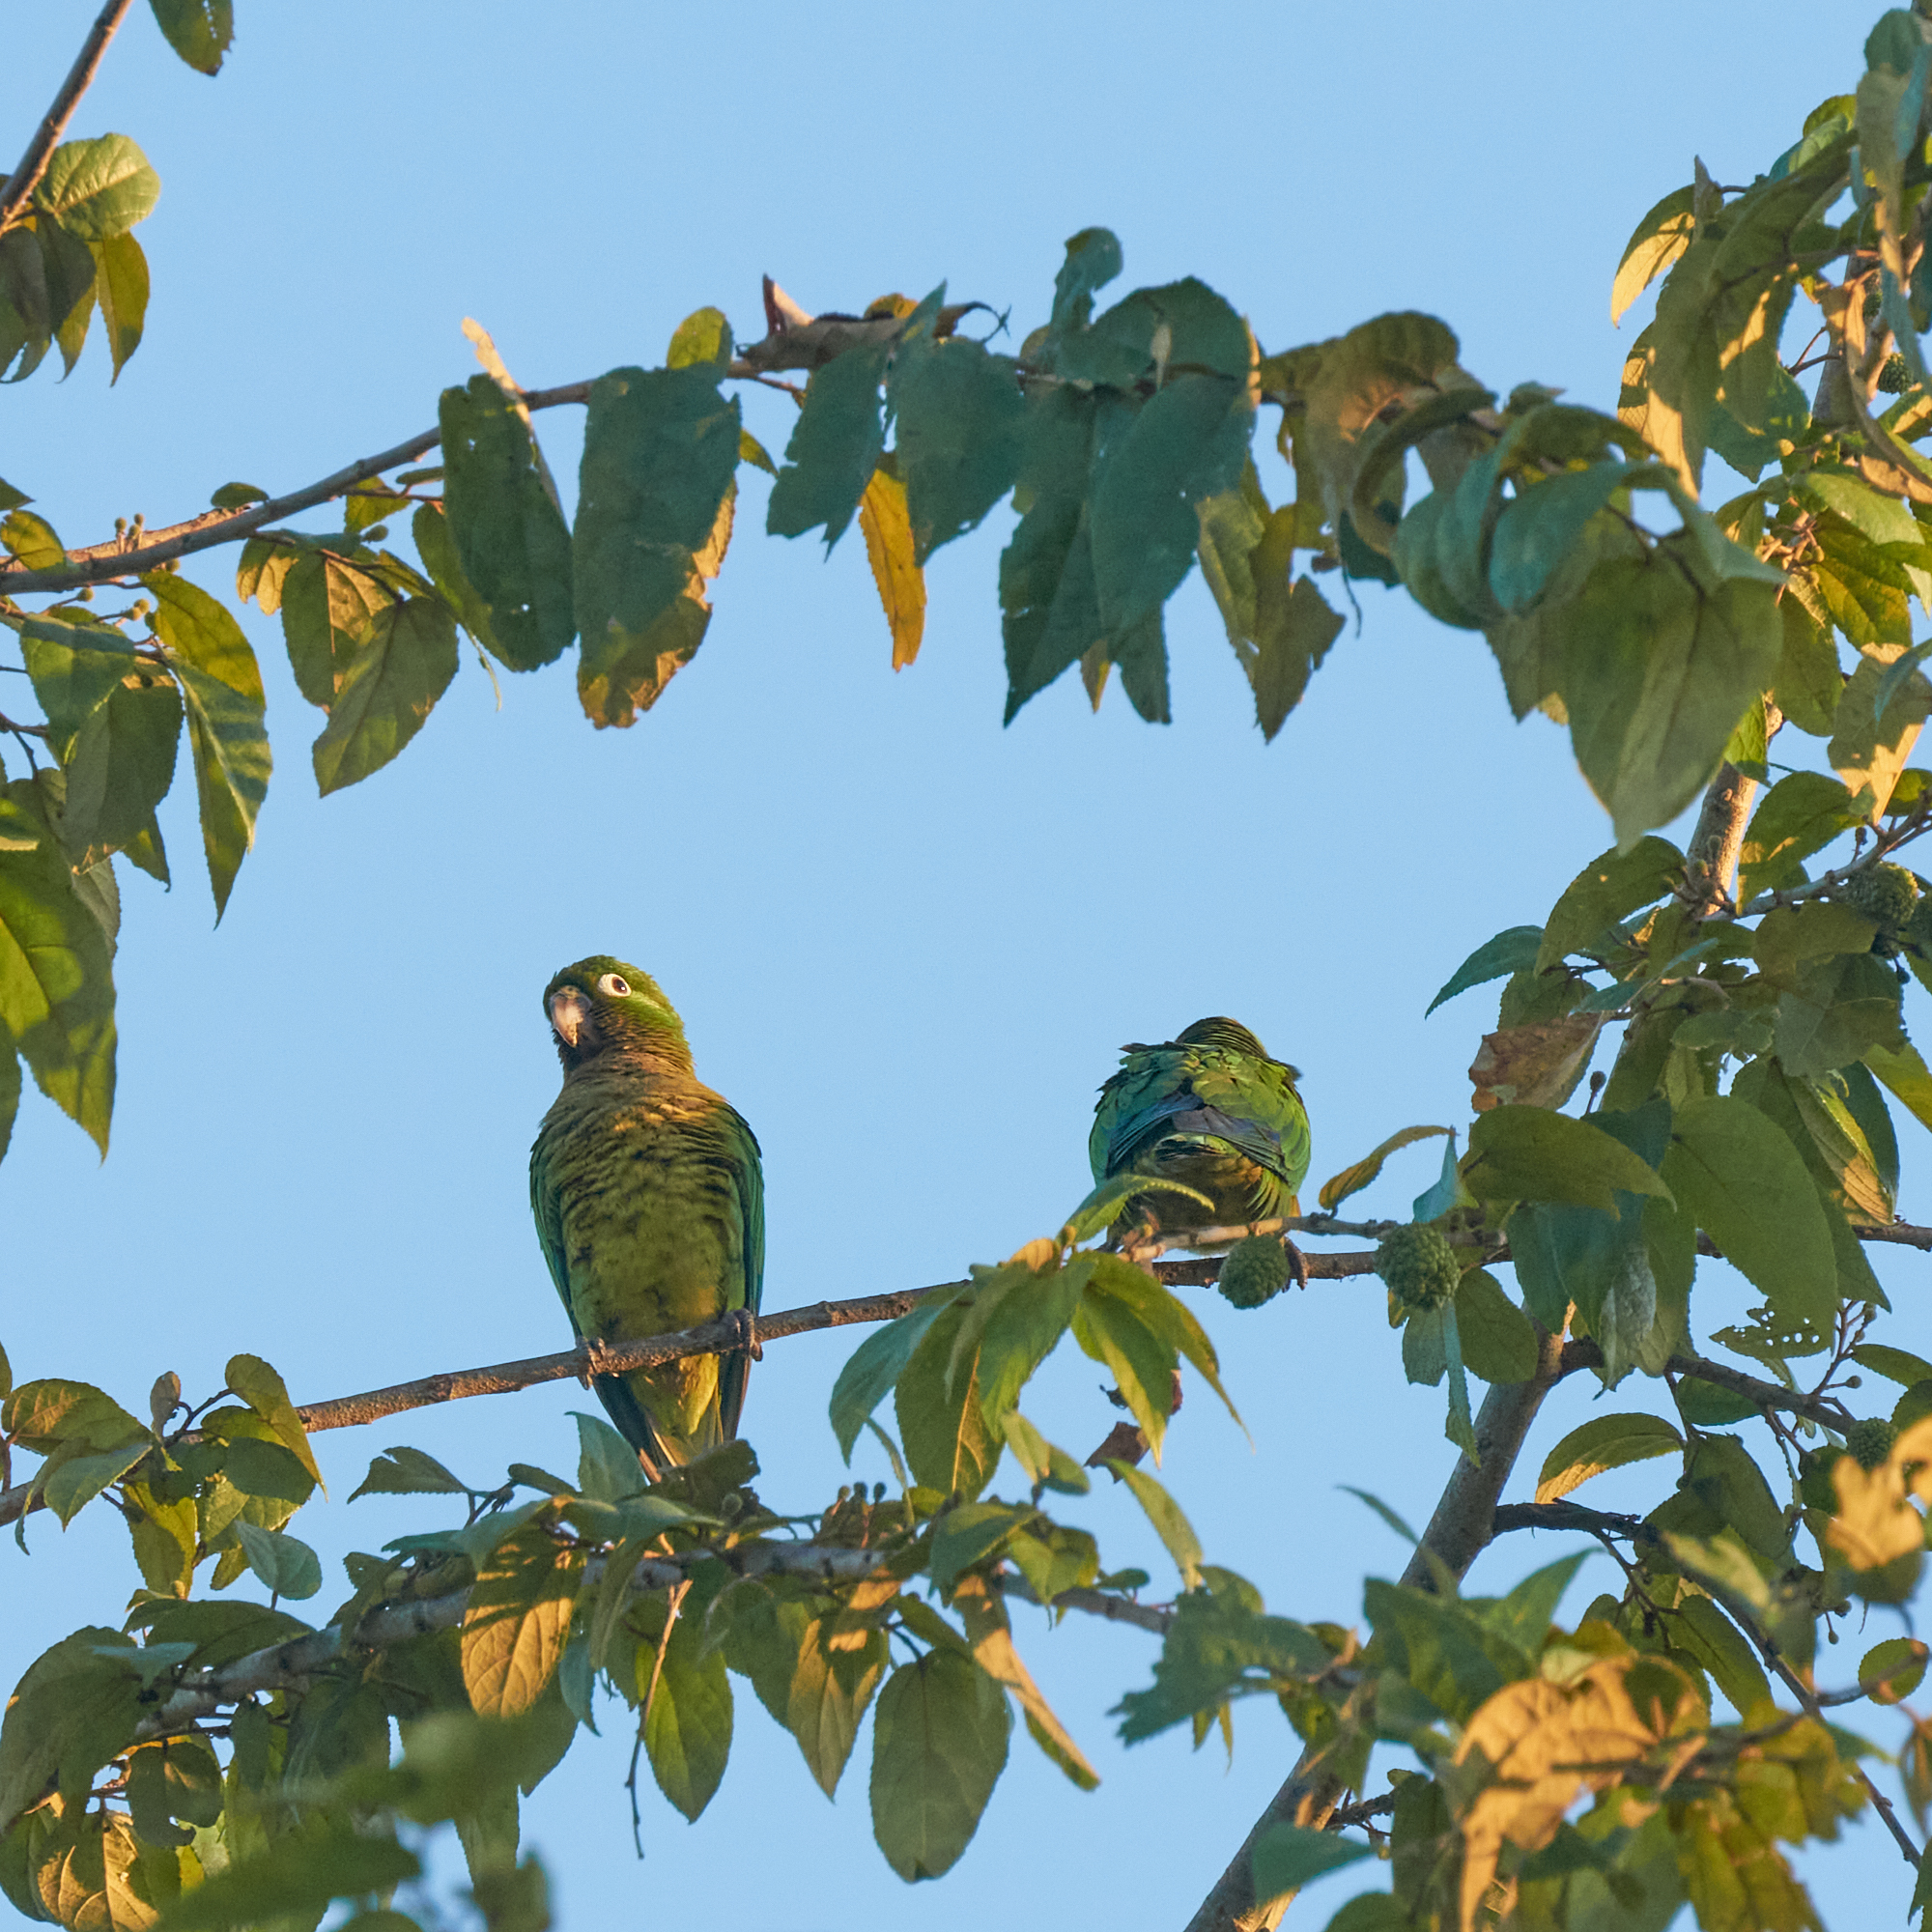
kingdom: Animalia
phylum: Chordata
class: Aves
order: Psittaciformes
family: Psittacidae
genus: Aratinga
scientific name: Aratinga nana
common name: Olive-throated parakeet
